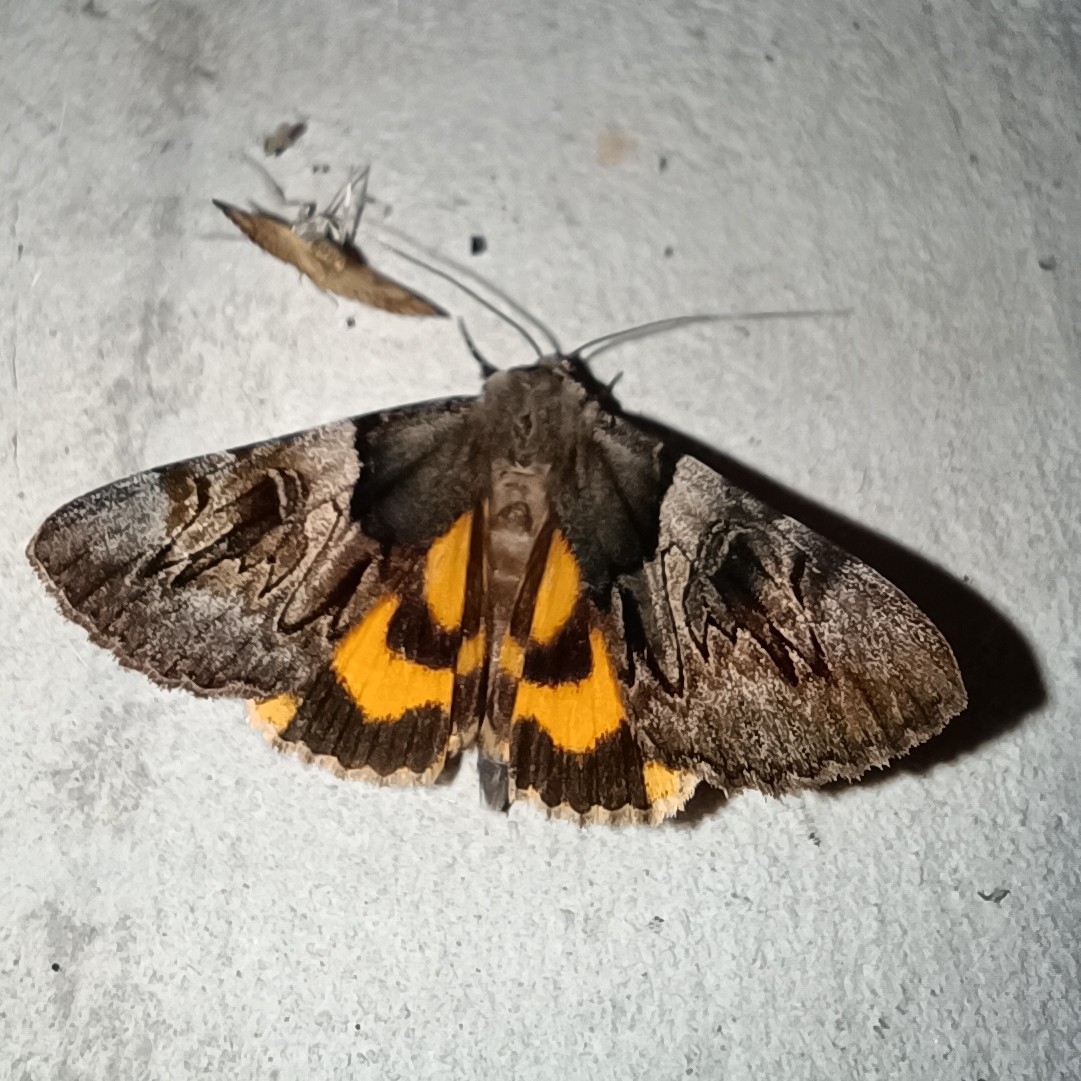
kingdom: Animalia
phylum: Arthropoda
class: Insecta
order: Lepidoptera
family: Erebidae
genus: Catocala
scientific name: Catocala fulminea
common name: Yellow bands underwing
